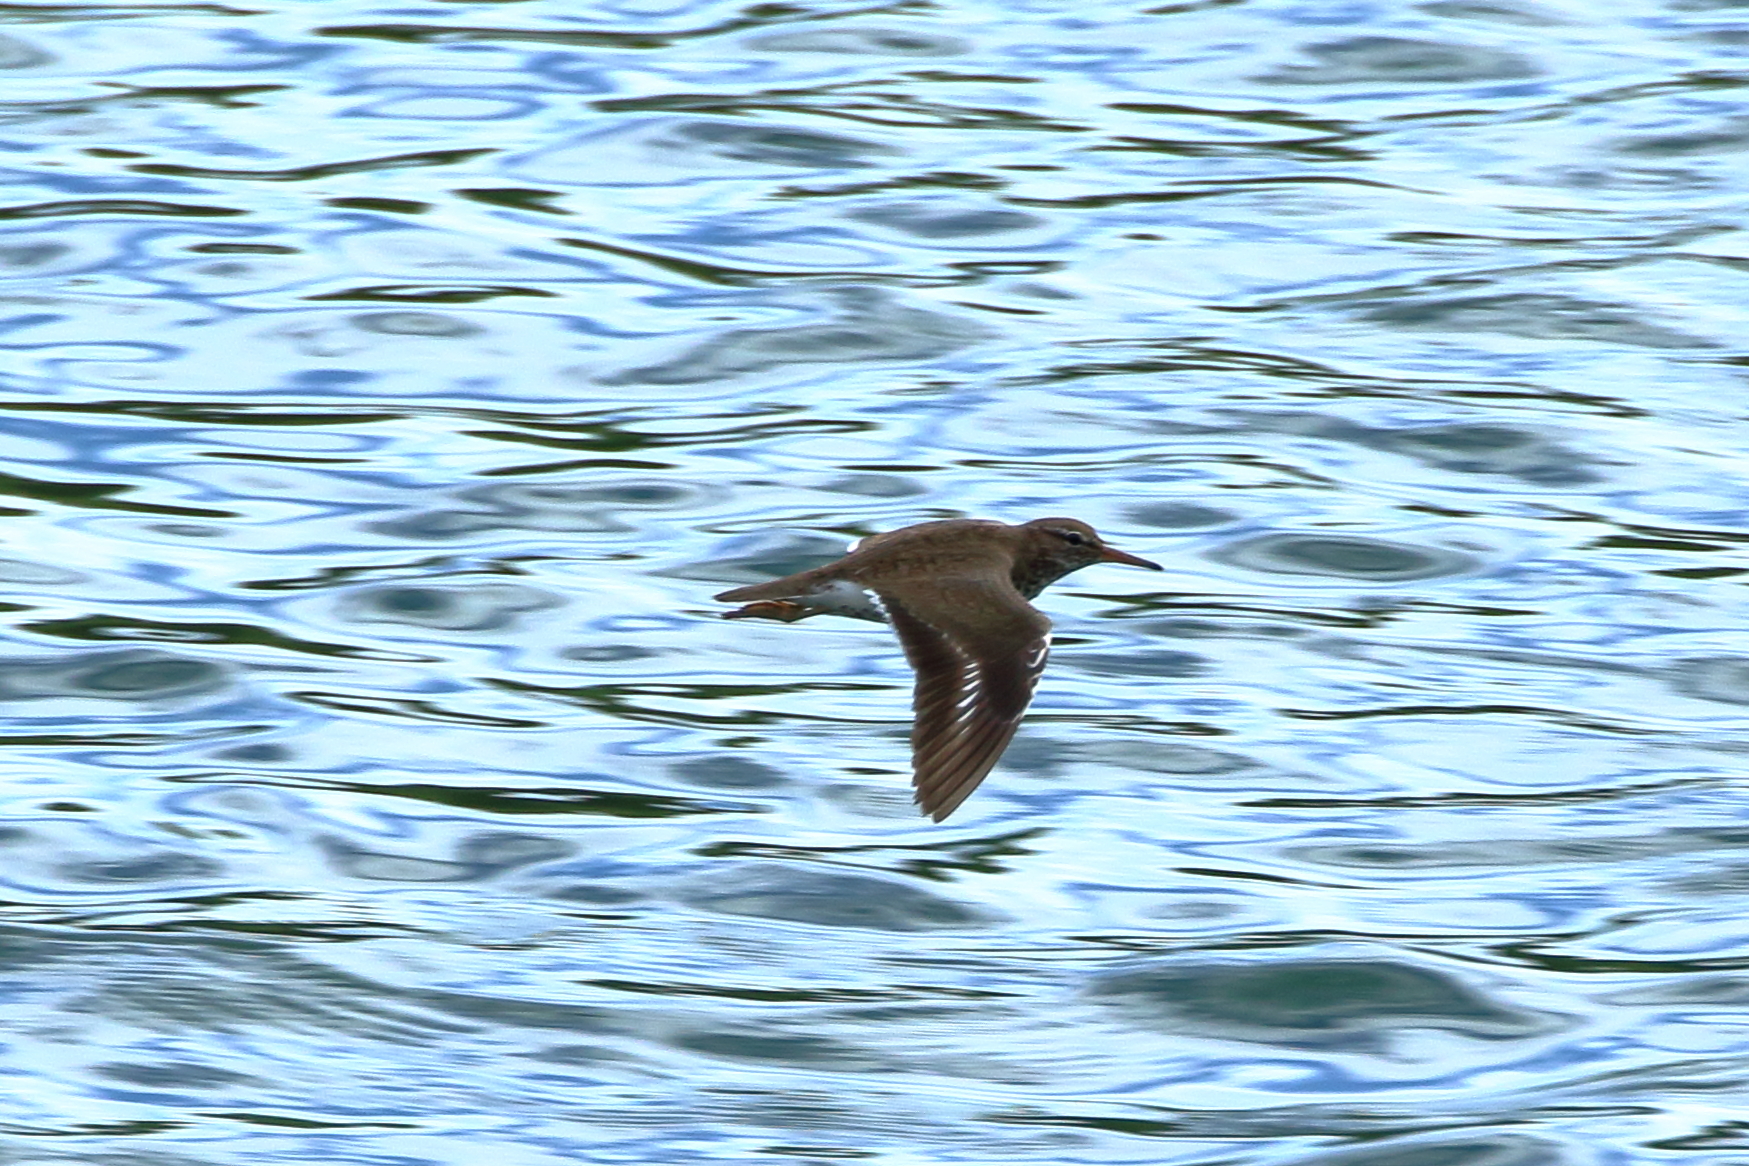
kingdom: Animalia
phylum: Chordata
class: Aves
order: Charadriiformes
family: Scolopacidae
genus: Actitis
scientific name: Actitis macularius
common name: Spotted sandpiper
